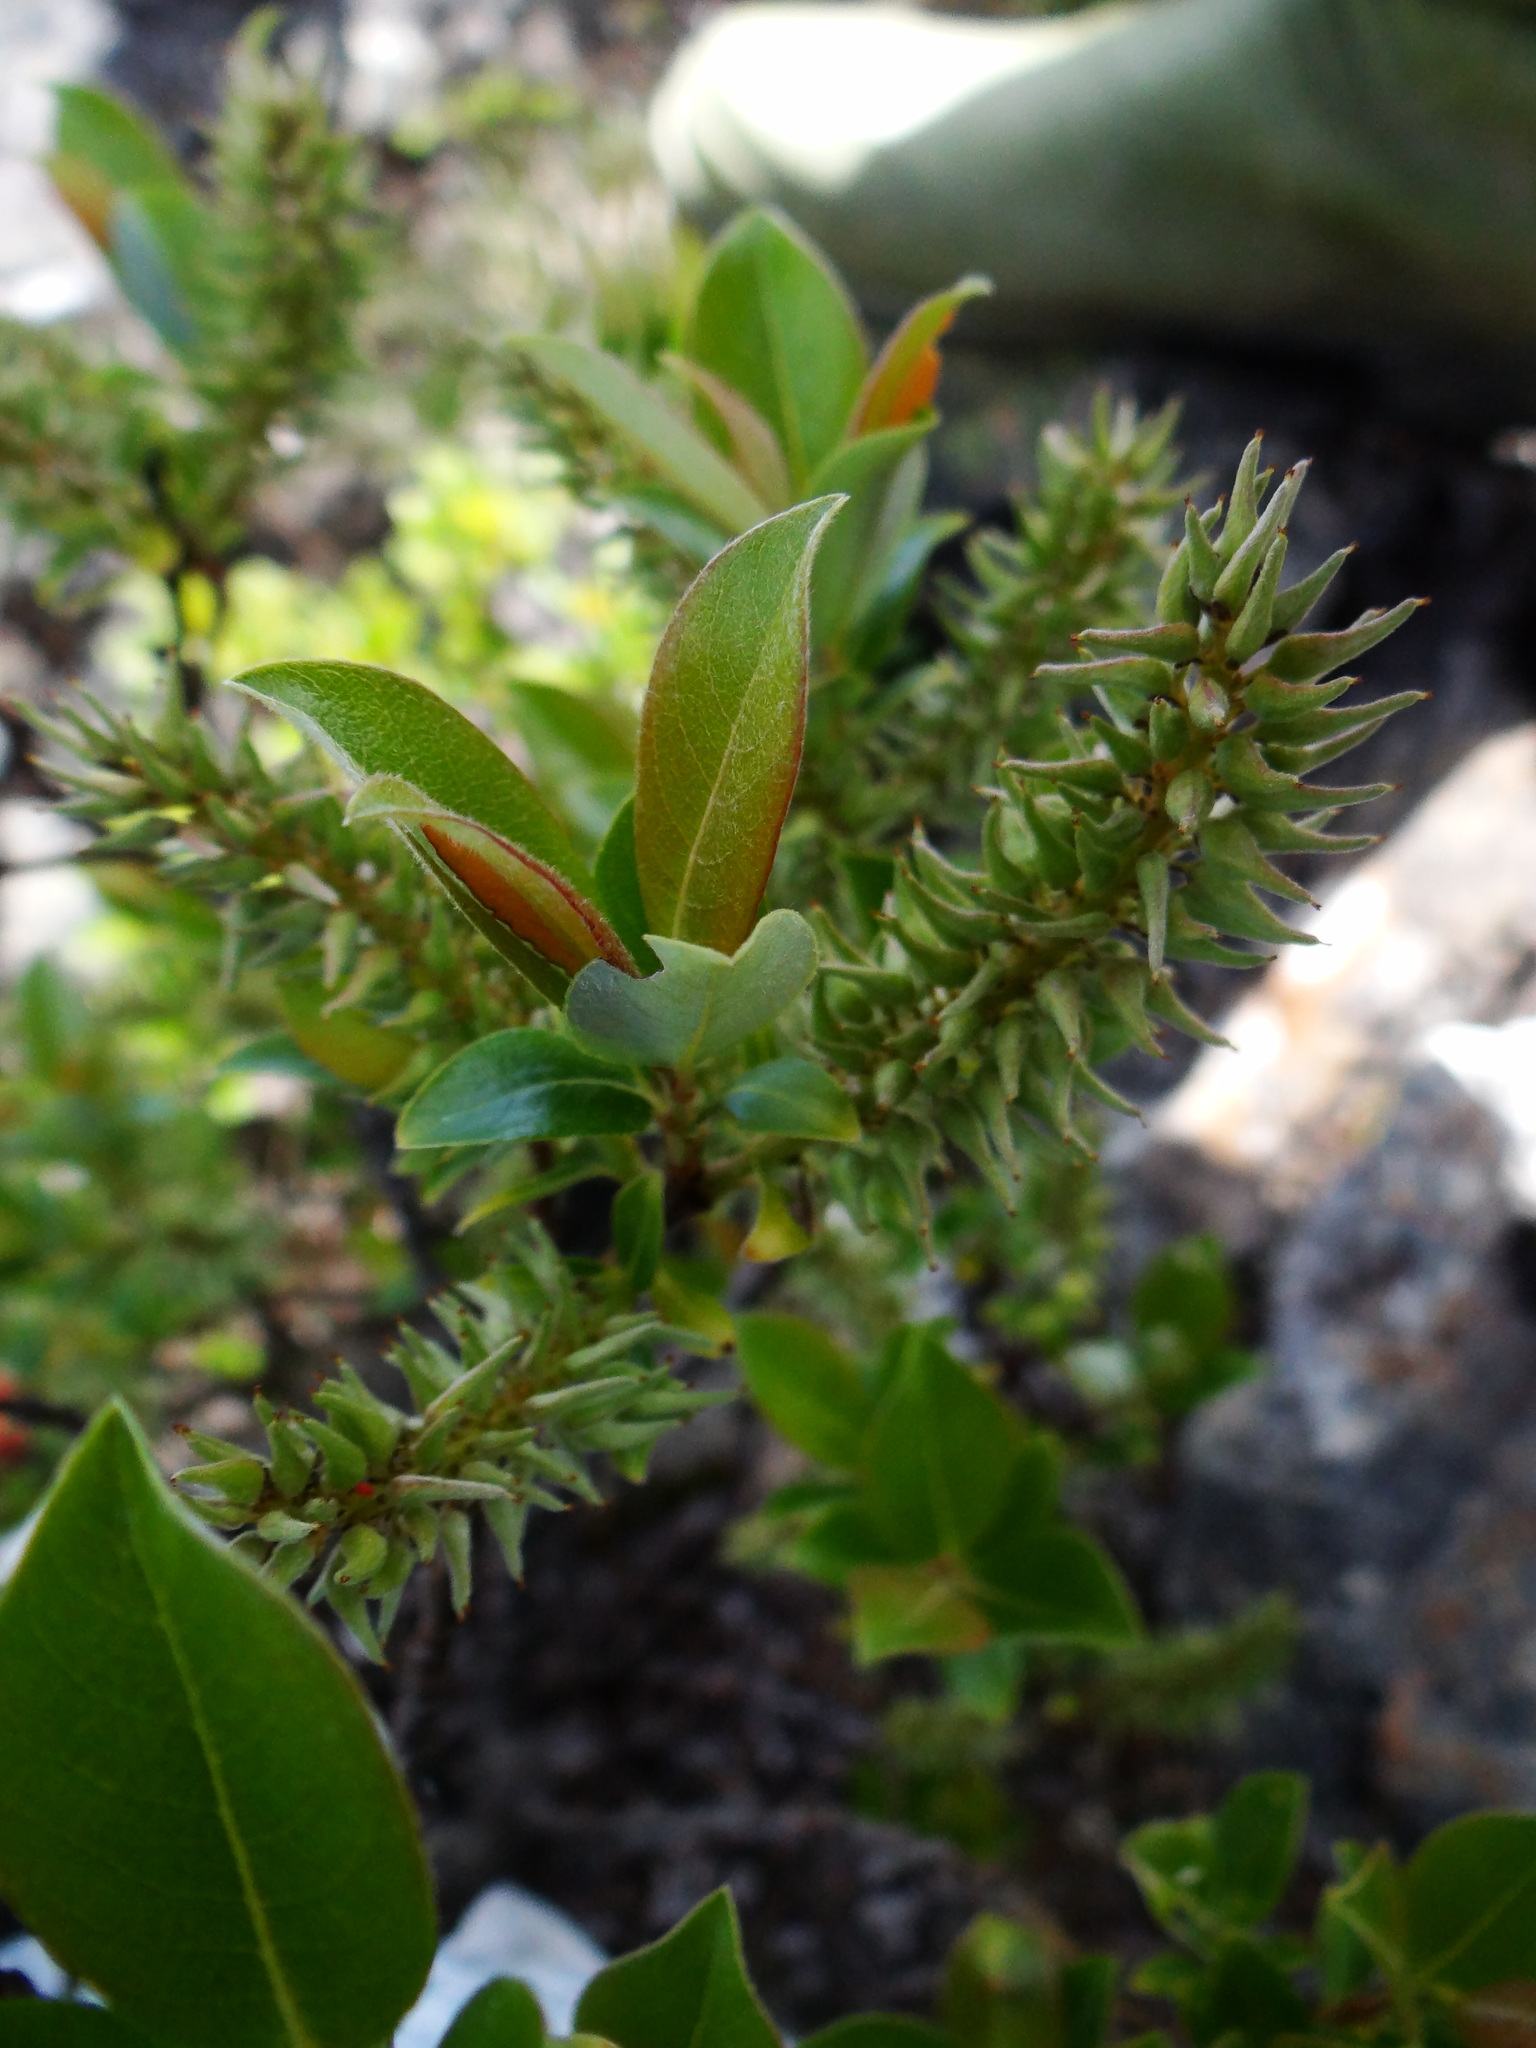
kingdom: Plantae
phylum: Tracheophyta
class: Magnoliopsida
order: Malpighiales
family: Salicaceae
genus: Salix
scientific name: Salix taiwanalpina
